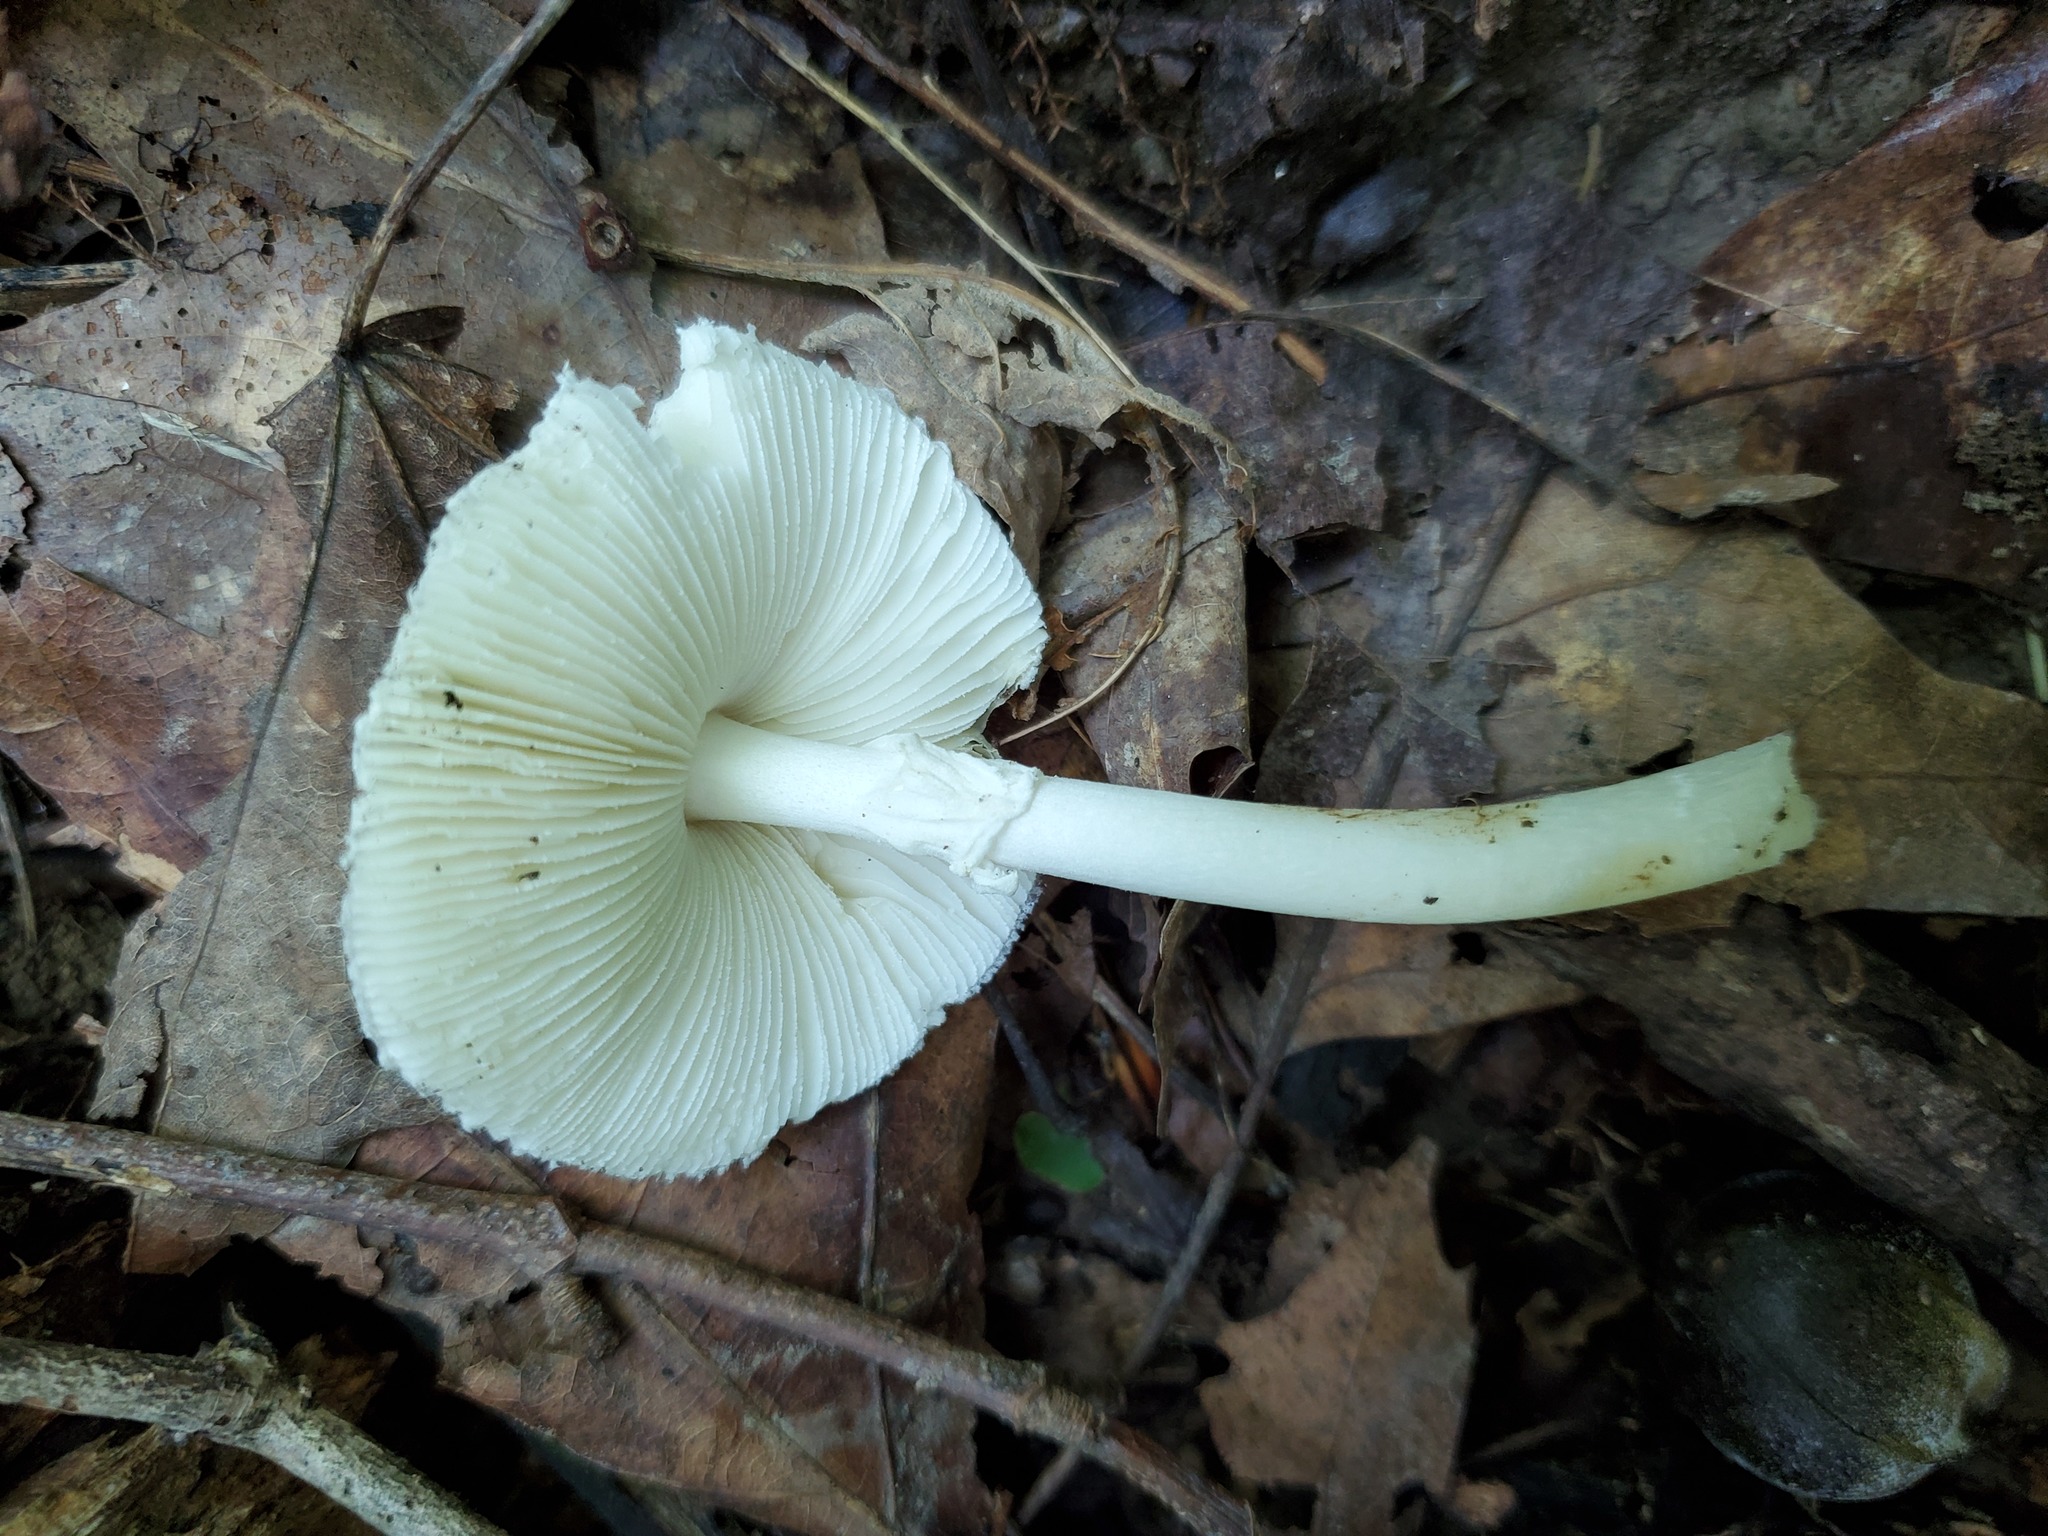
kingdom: Fungi
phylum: Basidiomycota
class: Agaricomycetes
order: Agaricales
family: Amanitaceae
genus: Amanita
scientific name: Amanita bisporigera
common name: Eastern north american destroying angel
